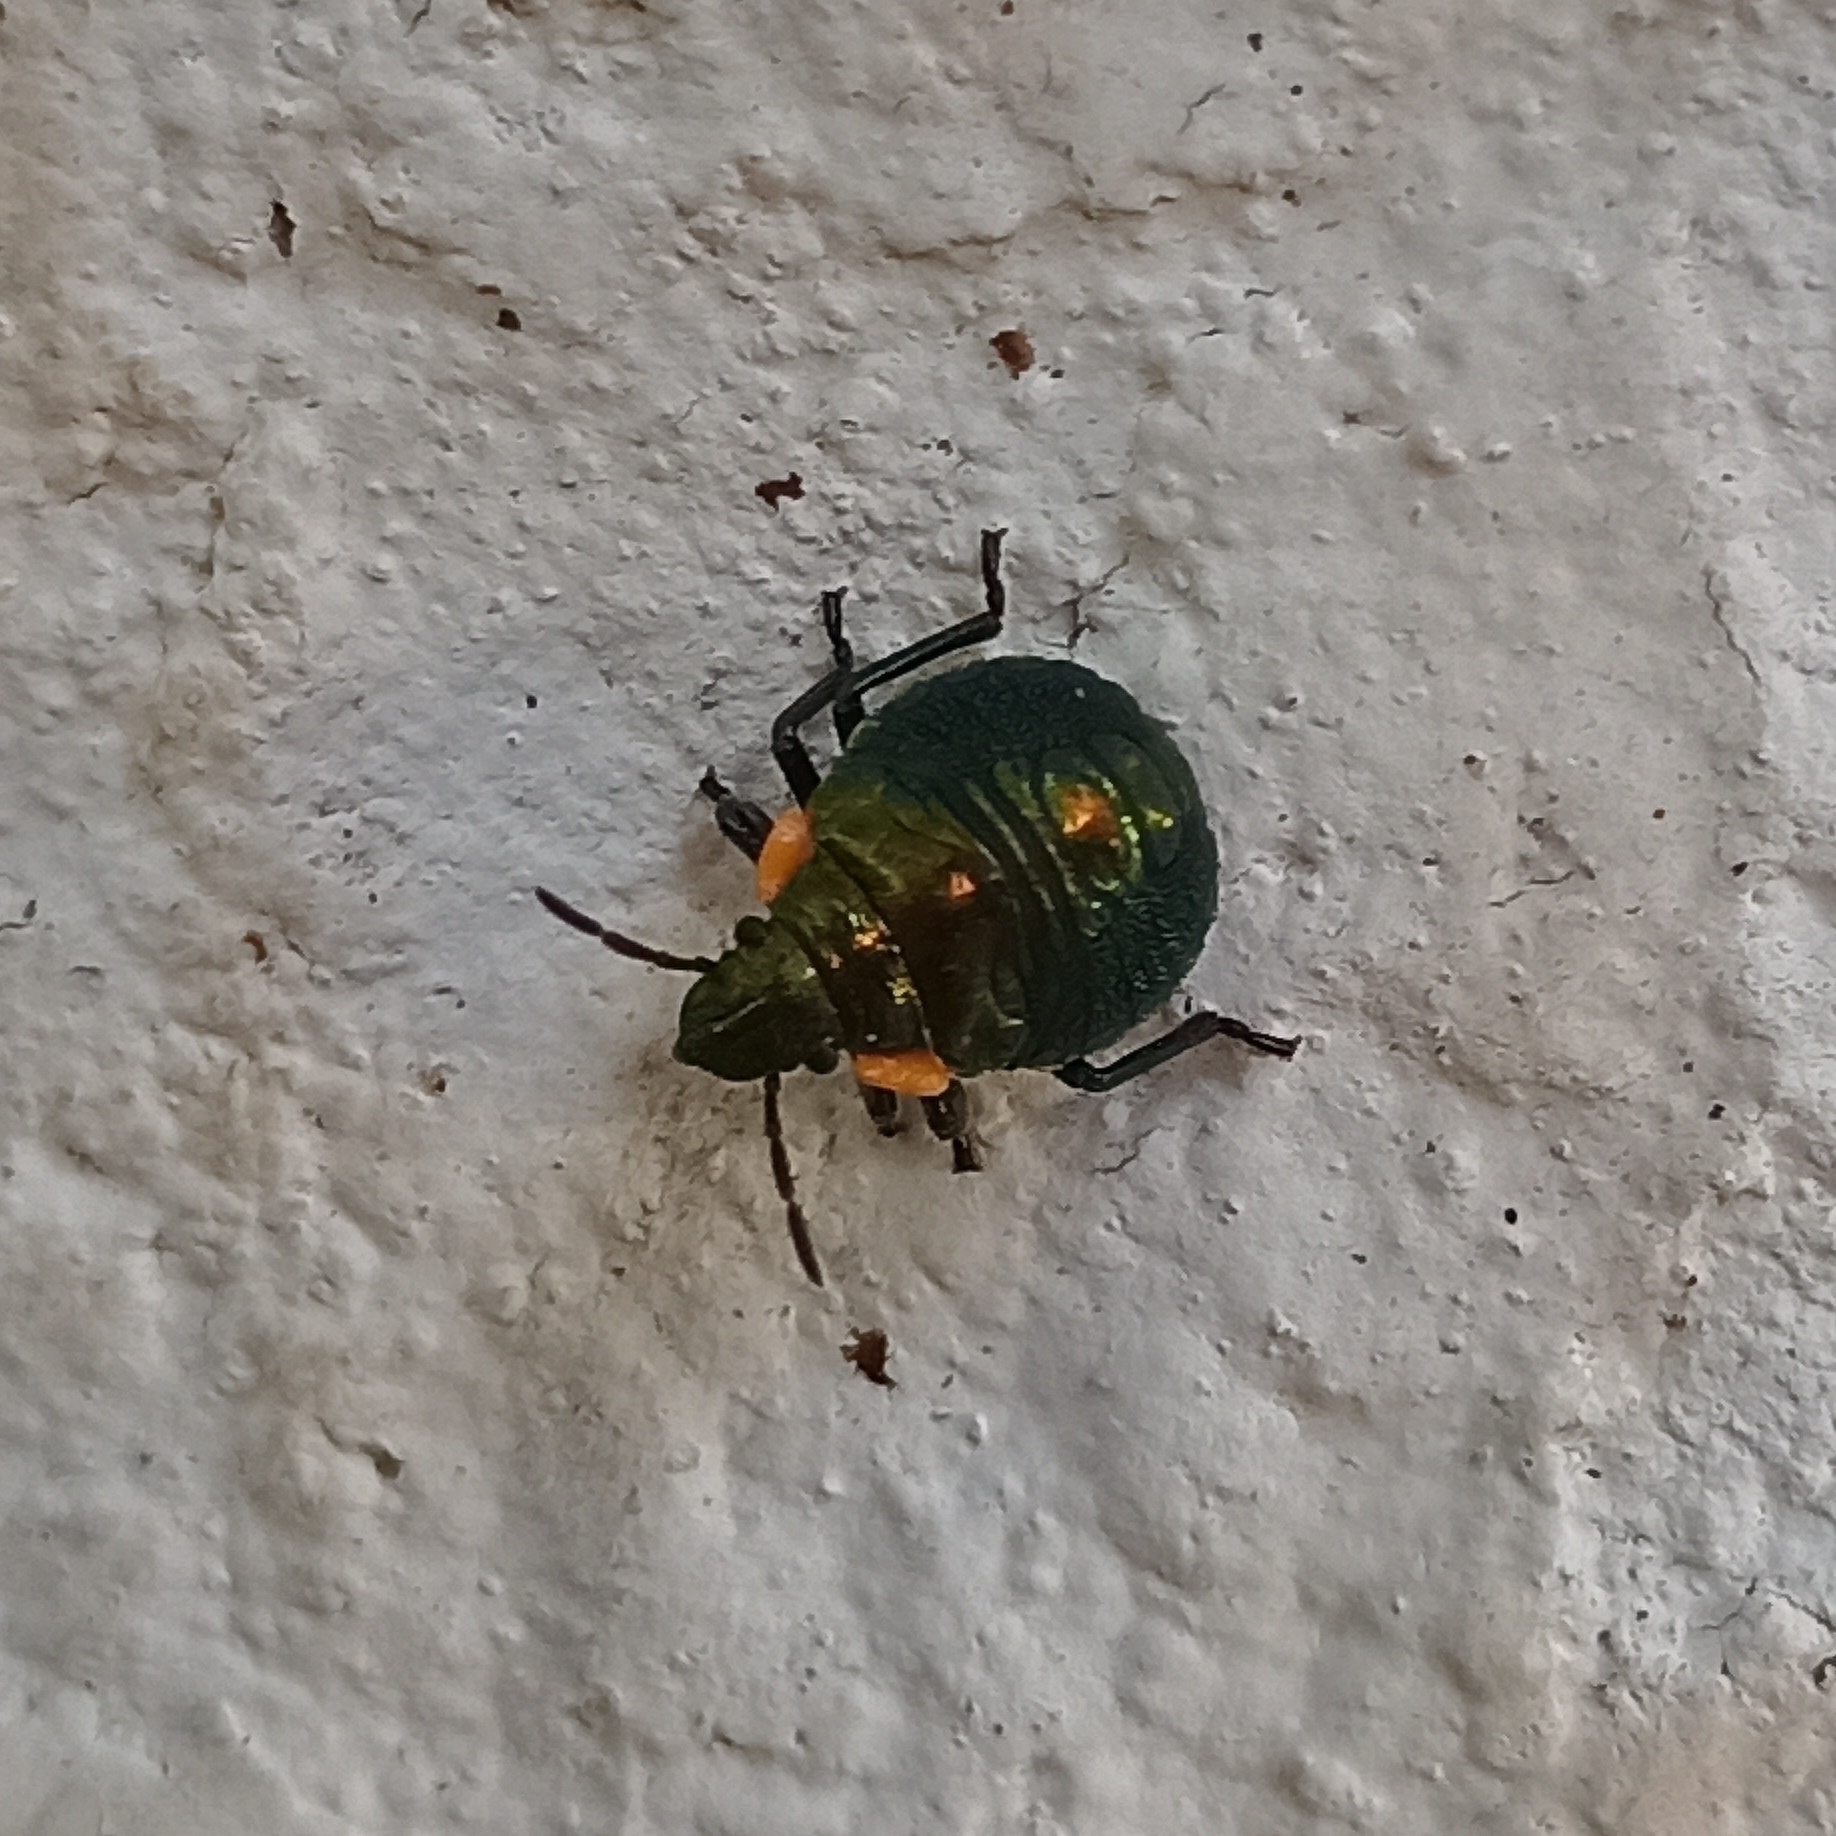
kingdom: Animalia
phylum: Arthropoda
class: Insecta
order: Hemiptera
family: Scutelleridae
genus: Pachycoris
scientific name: Pachycoris torridus
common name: Torrid jewel bug
